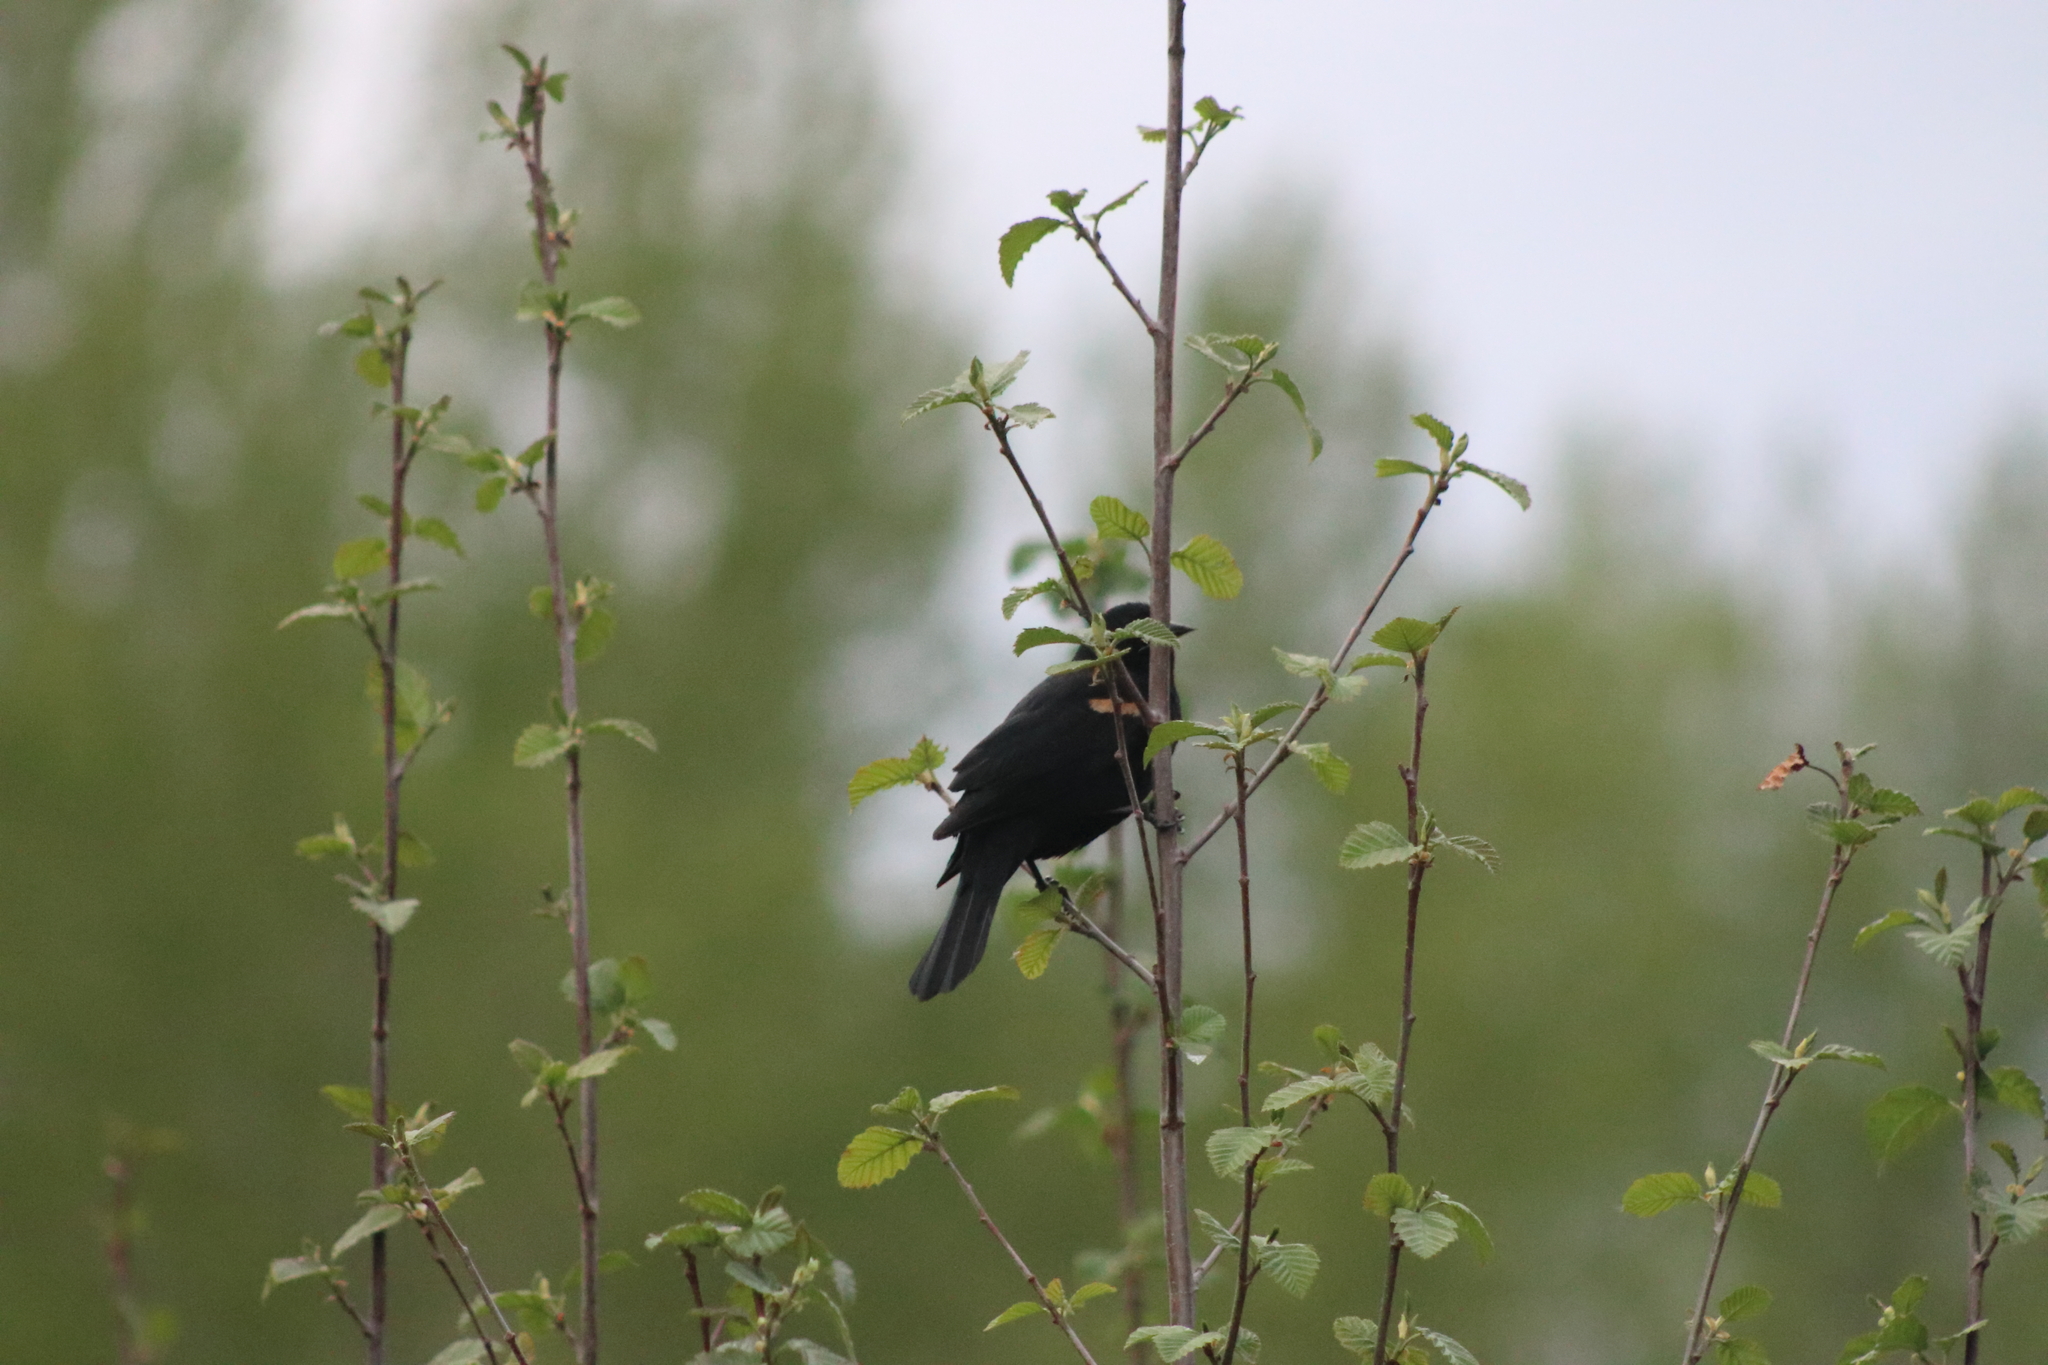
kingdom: Animalia
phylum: Chordata
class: Aves
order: Passeriformes
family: Icteridae
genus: Agelaius
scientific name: Agelaius phoeniceus
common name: Red-winged blackbird
